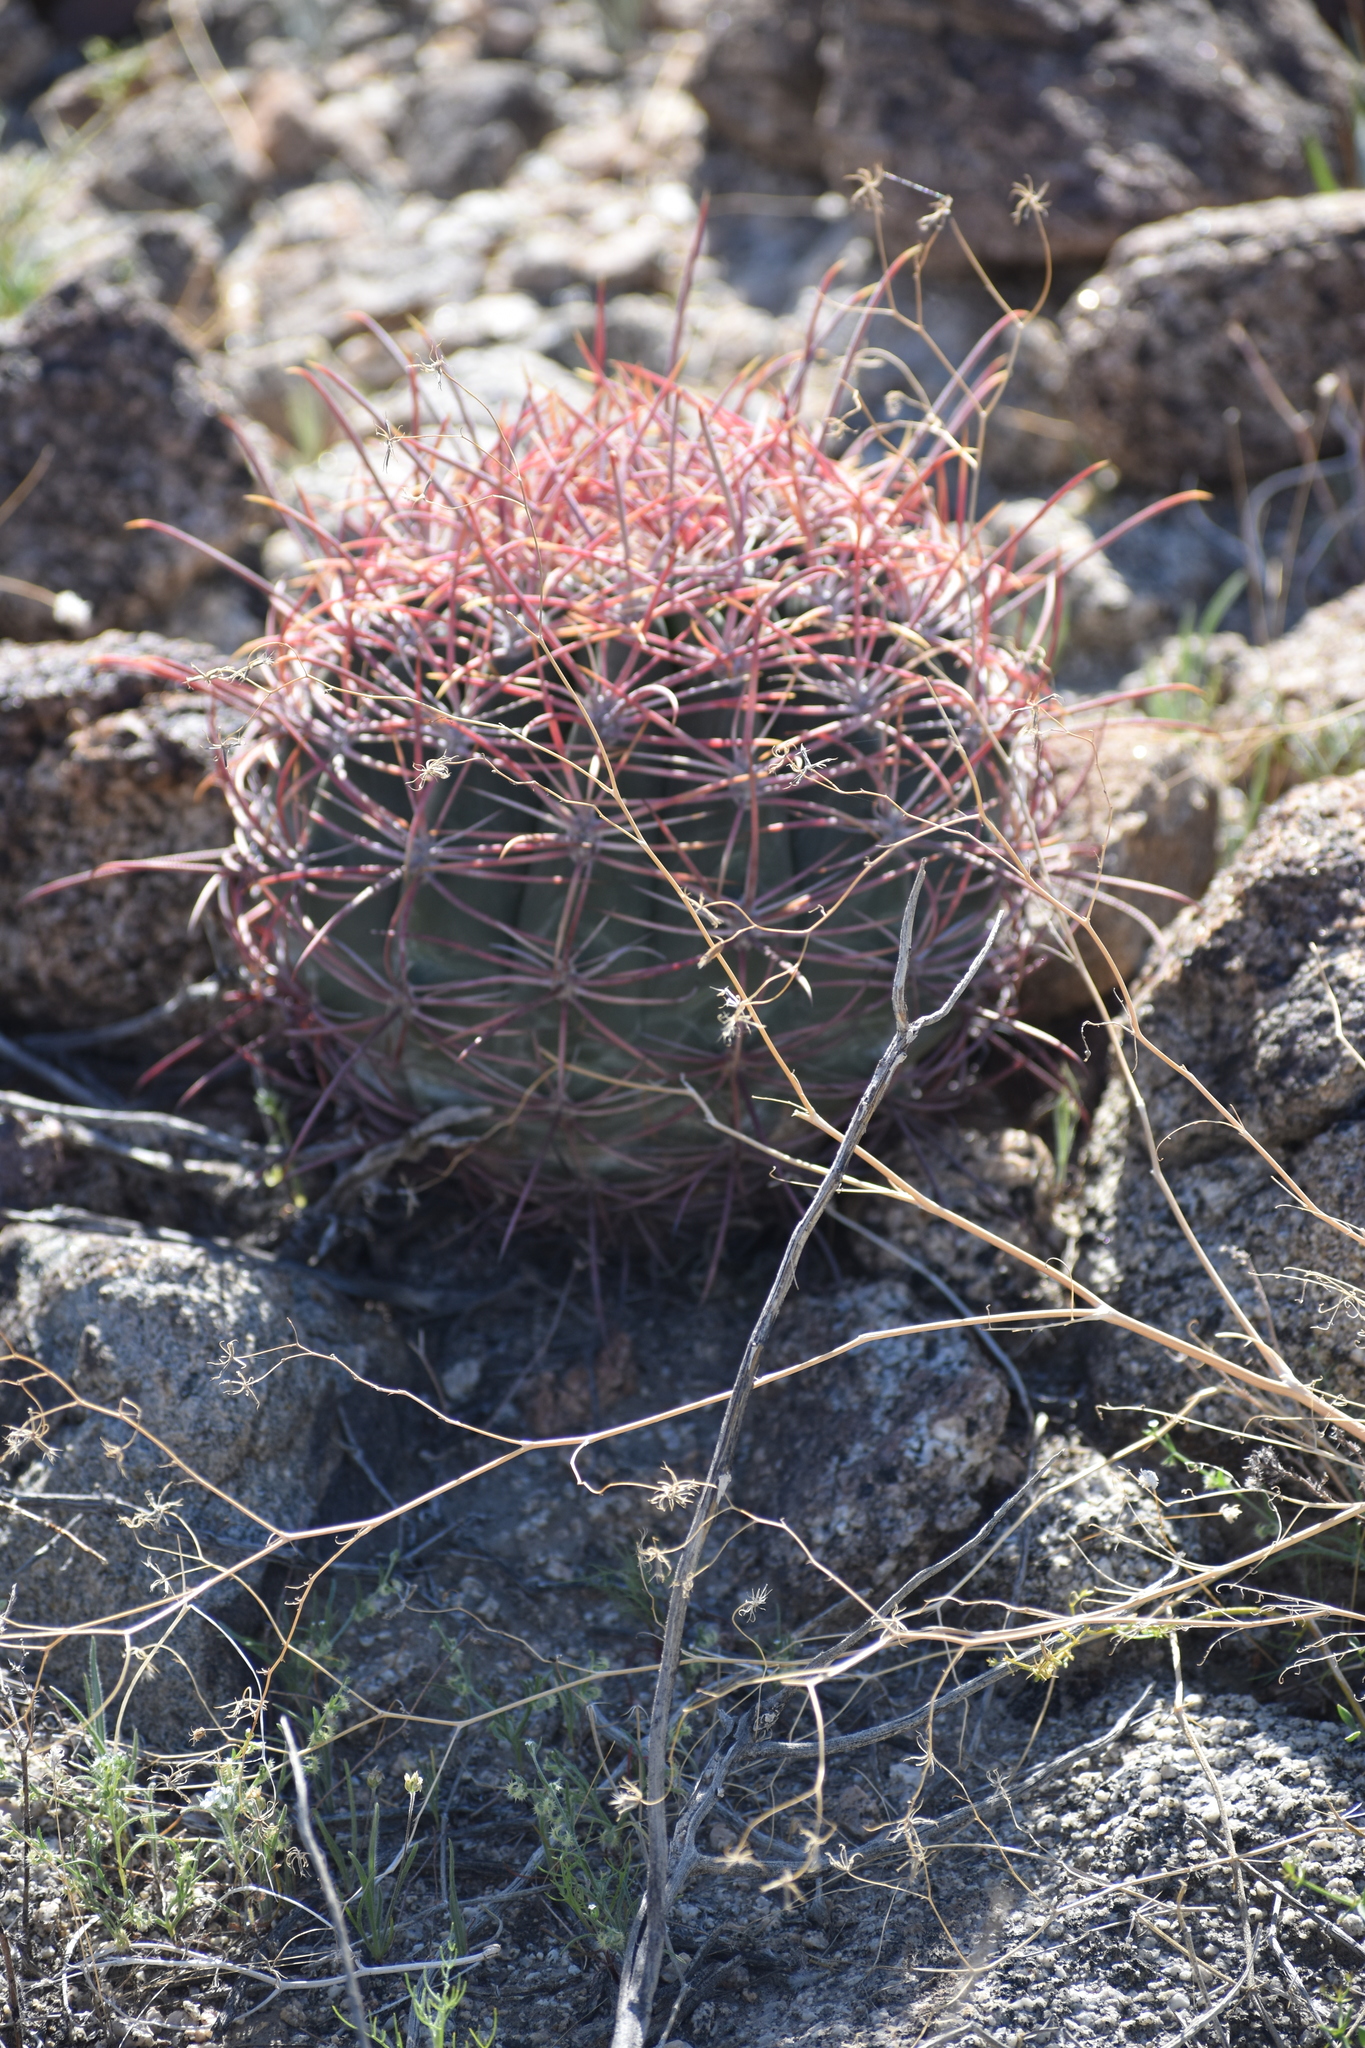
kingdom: Plantae
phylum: Tracheophyta
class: Magnoliopsida
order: Caryophyllales
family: Cactaceae
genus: Ferocactus
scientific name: Ferocactus cylindraceus
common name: California barrel cactus
